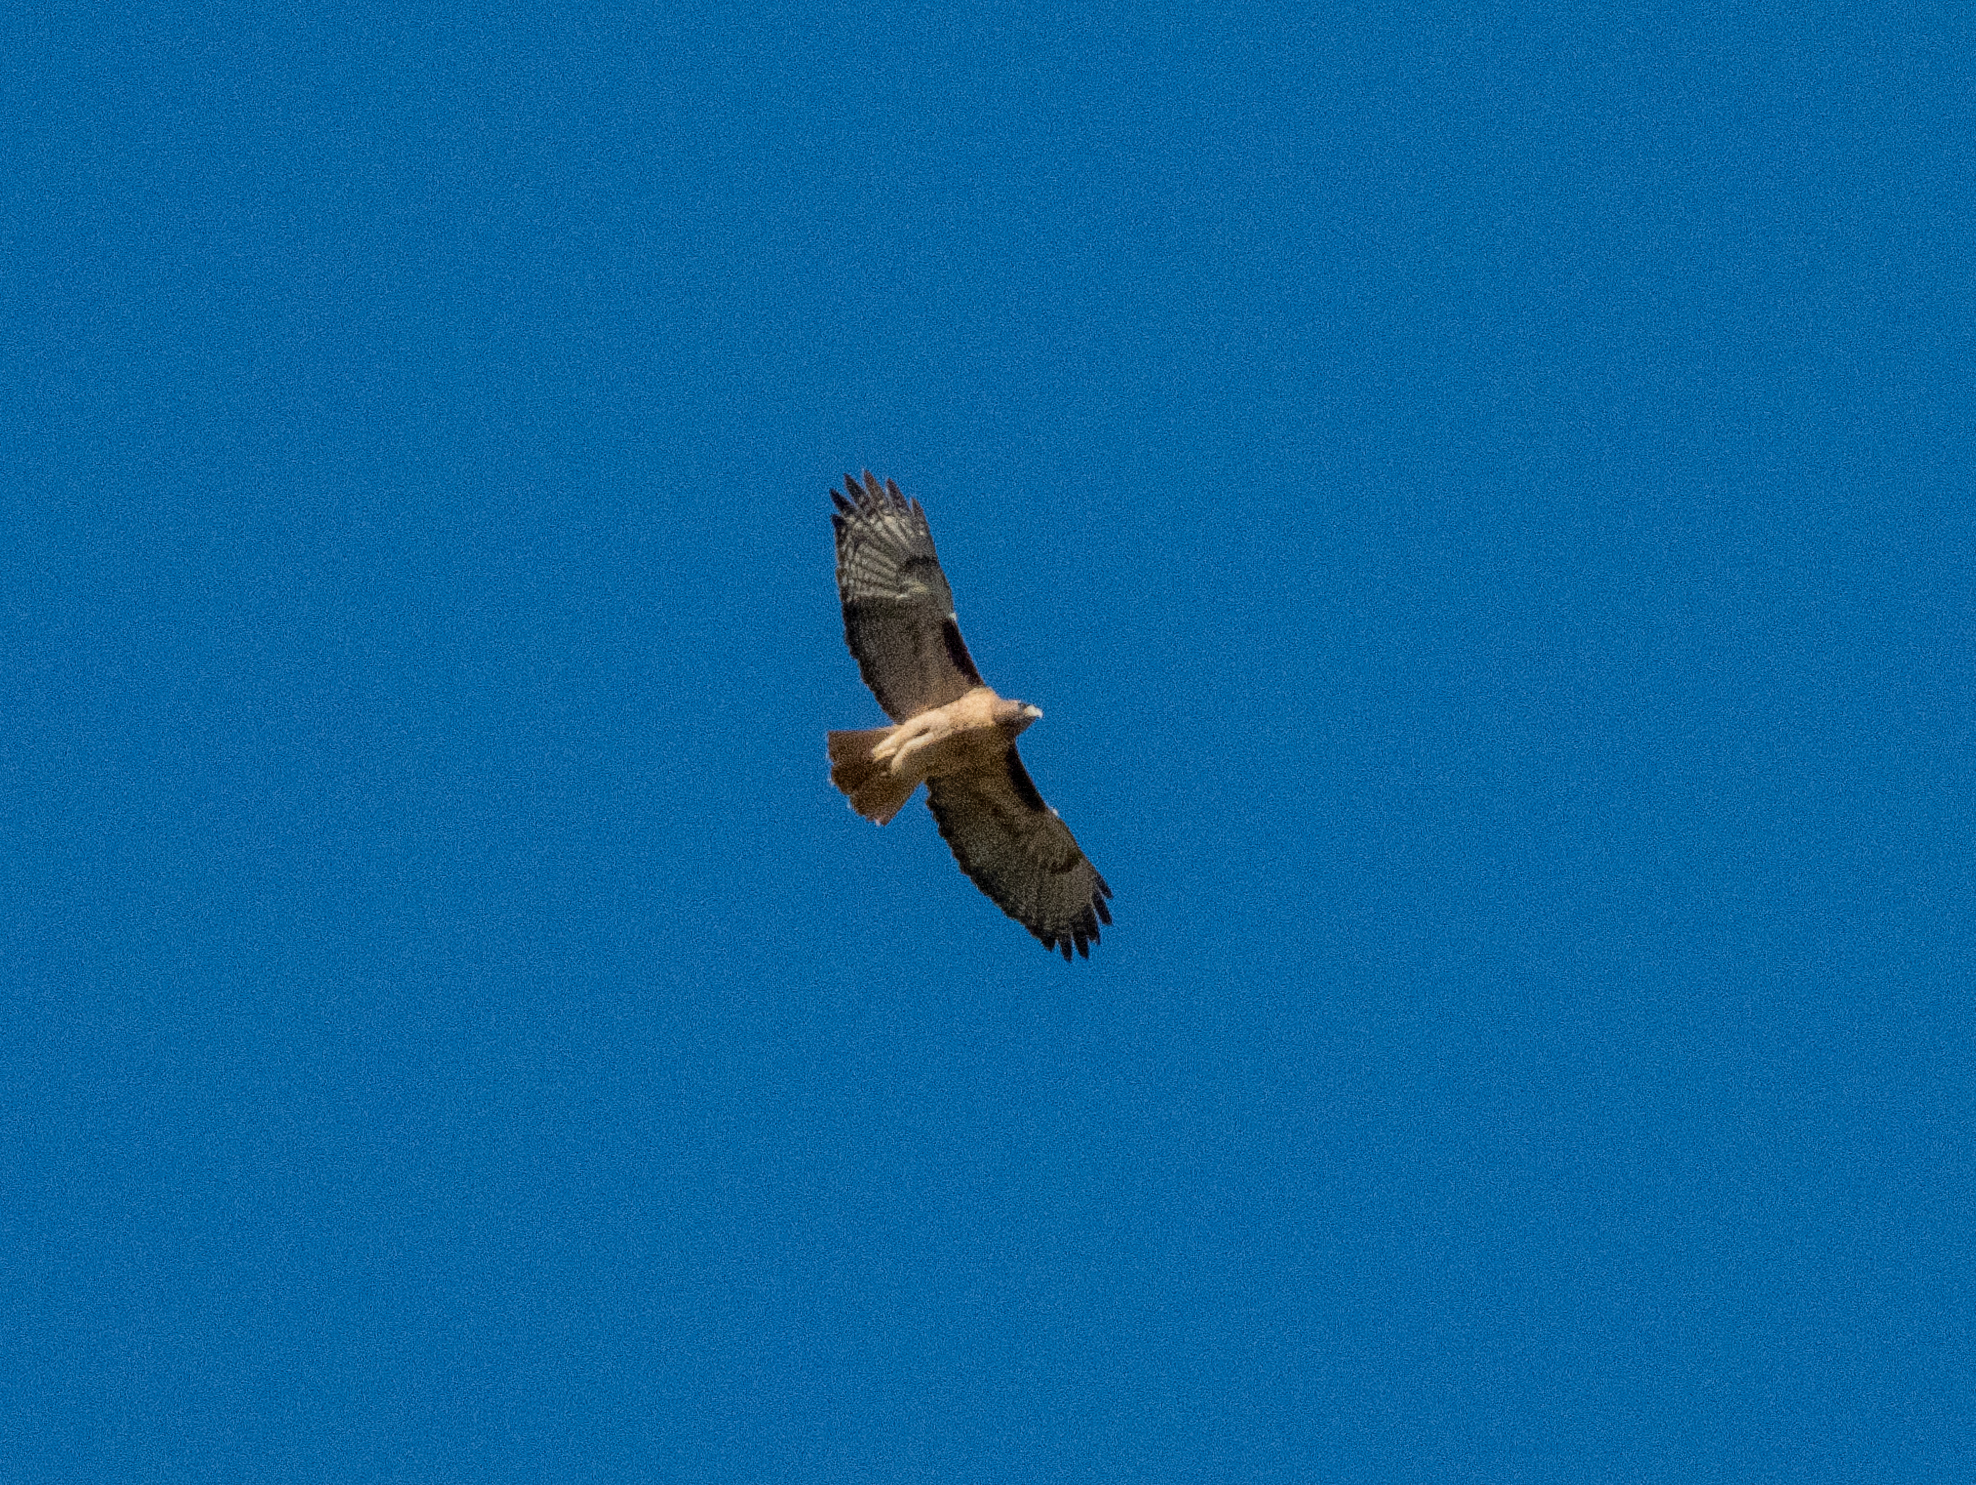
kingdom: Animalia
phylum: Chordata
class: Aves
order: Accipitriformes
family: Accipitridae
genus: Buteo
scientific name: Buteo jamaicensis
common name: Red-tailed hawk
